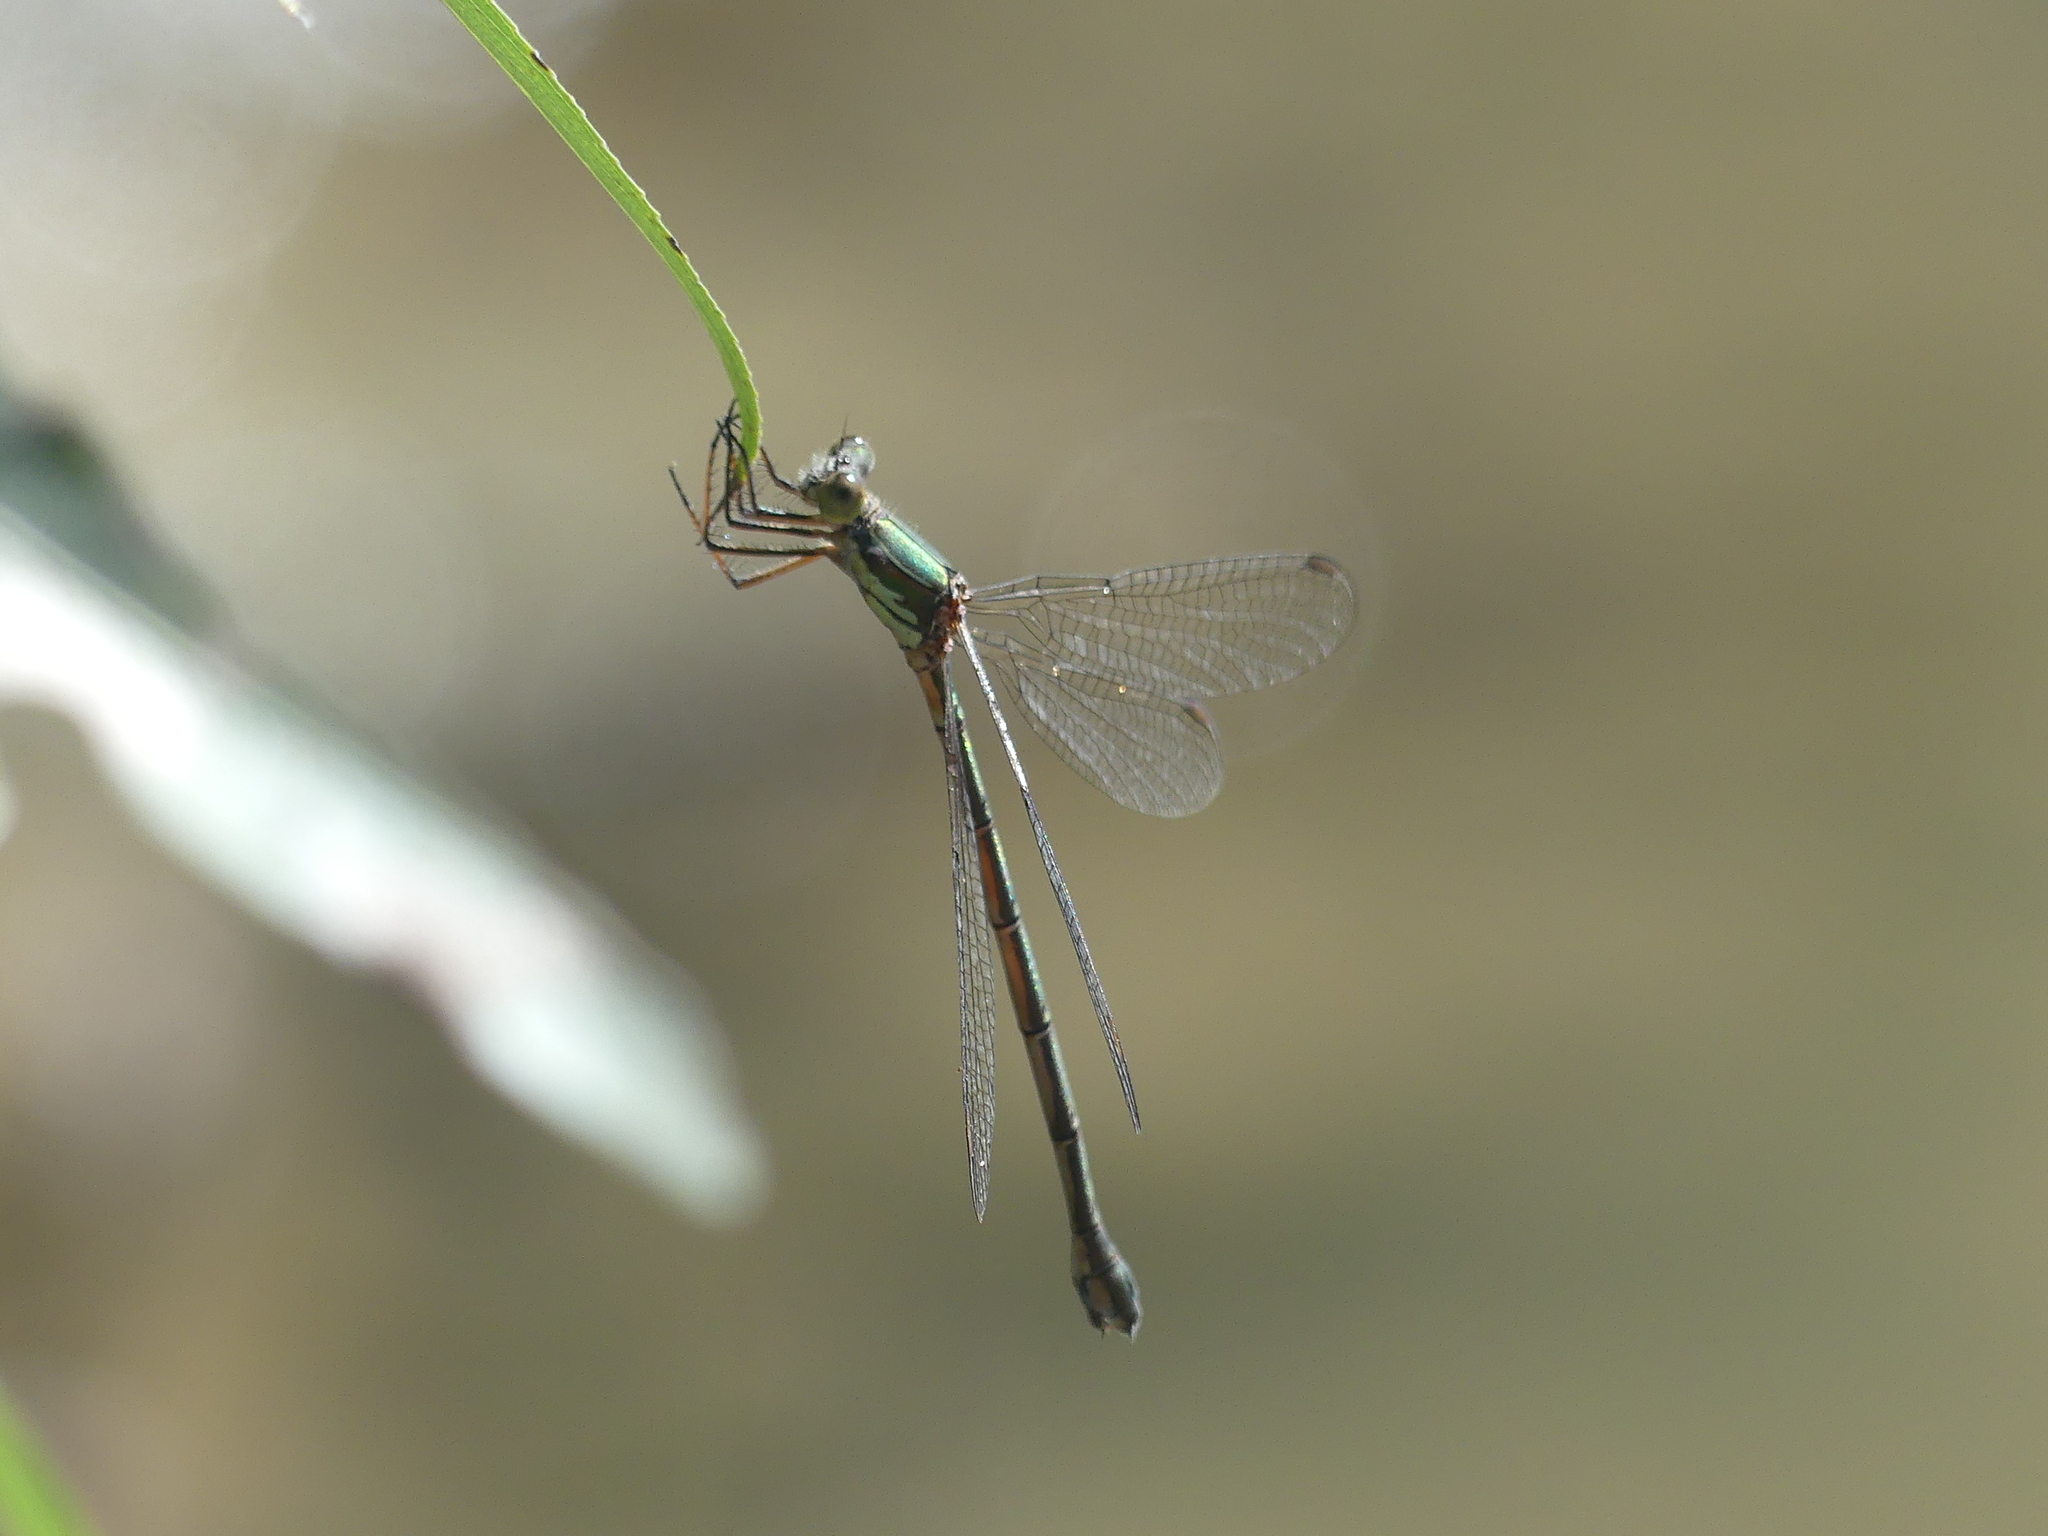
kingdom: Animalia
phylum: Arthropoda
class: Insecta
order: Odonata
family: Lestidae
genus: Chalcolestes
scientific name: Chalcolestes parvidens
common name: Eastern willow spreadwing
